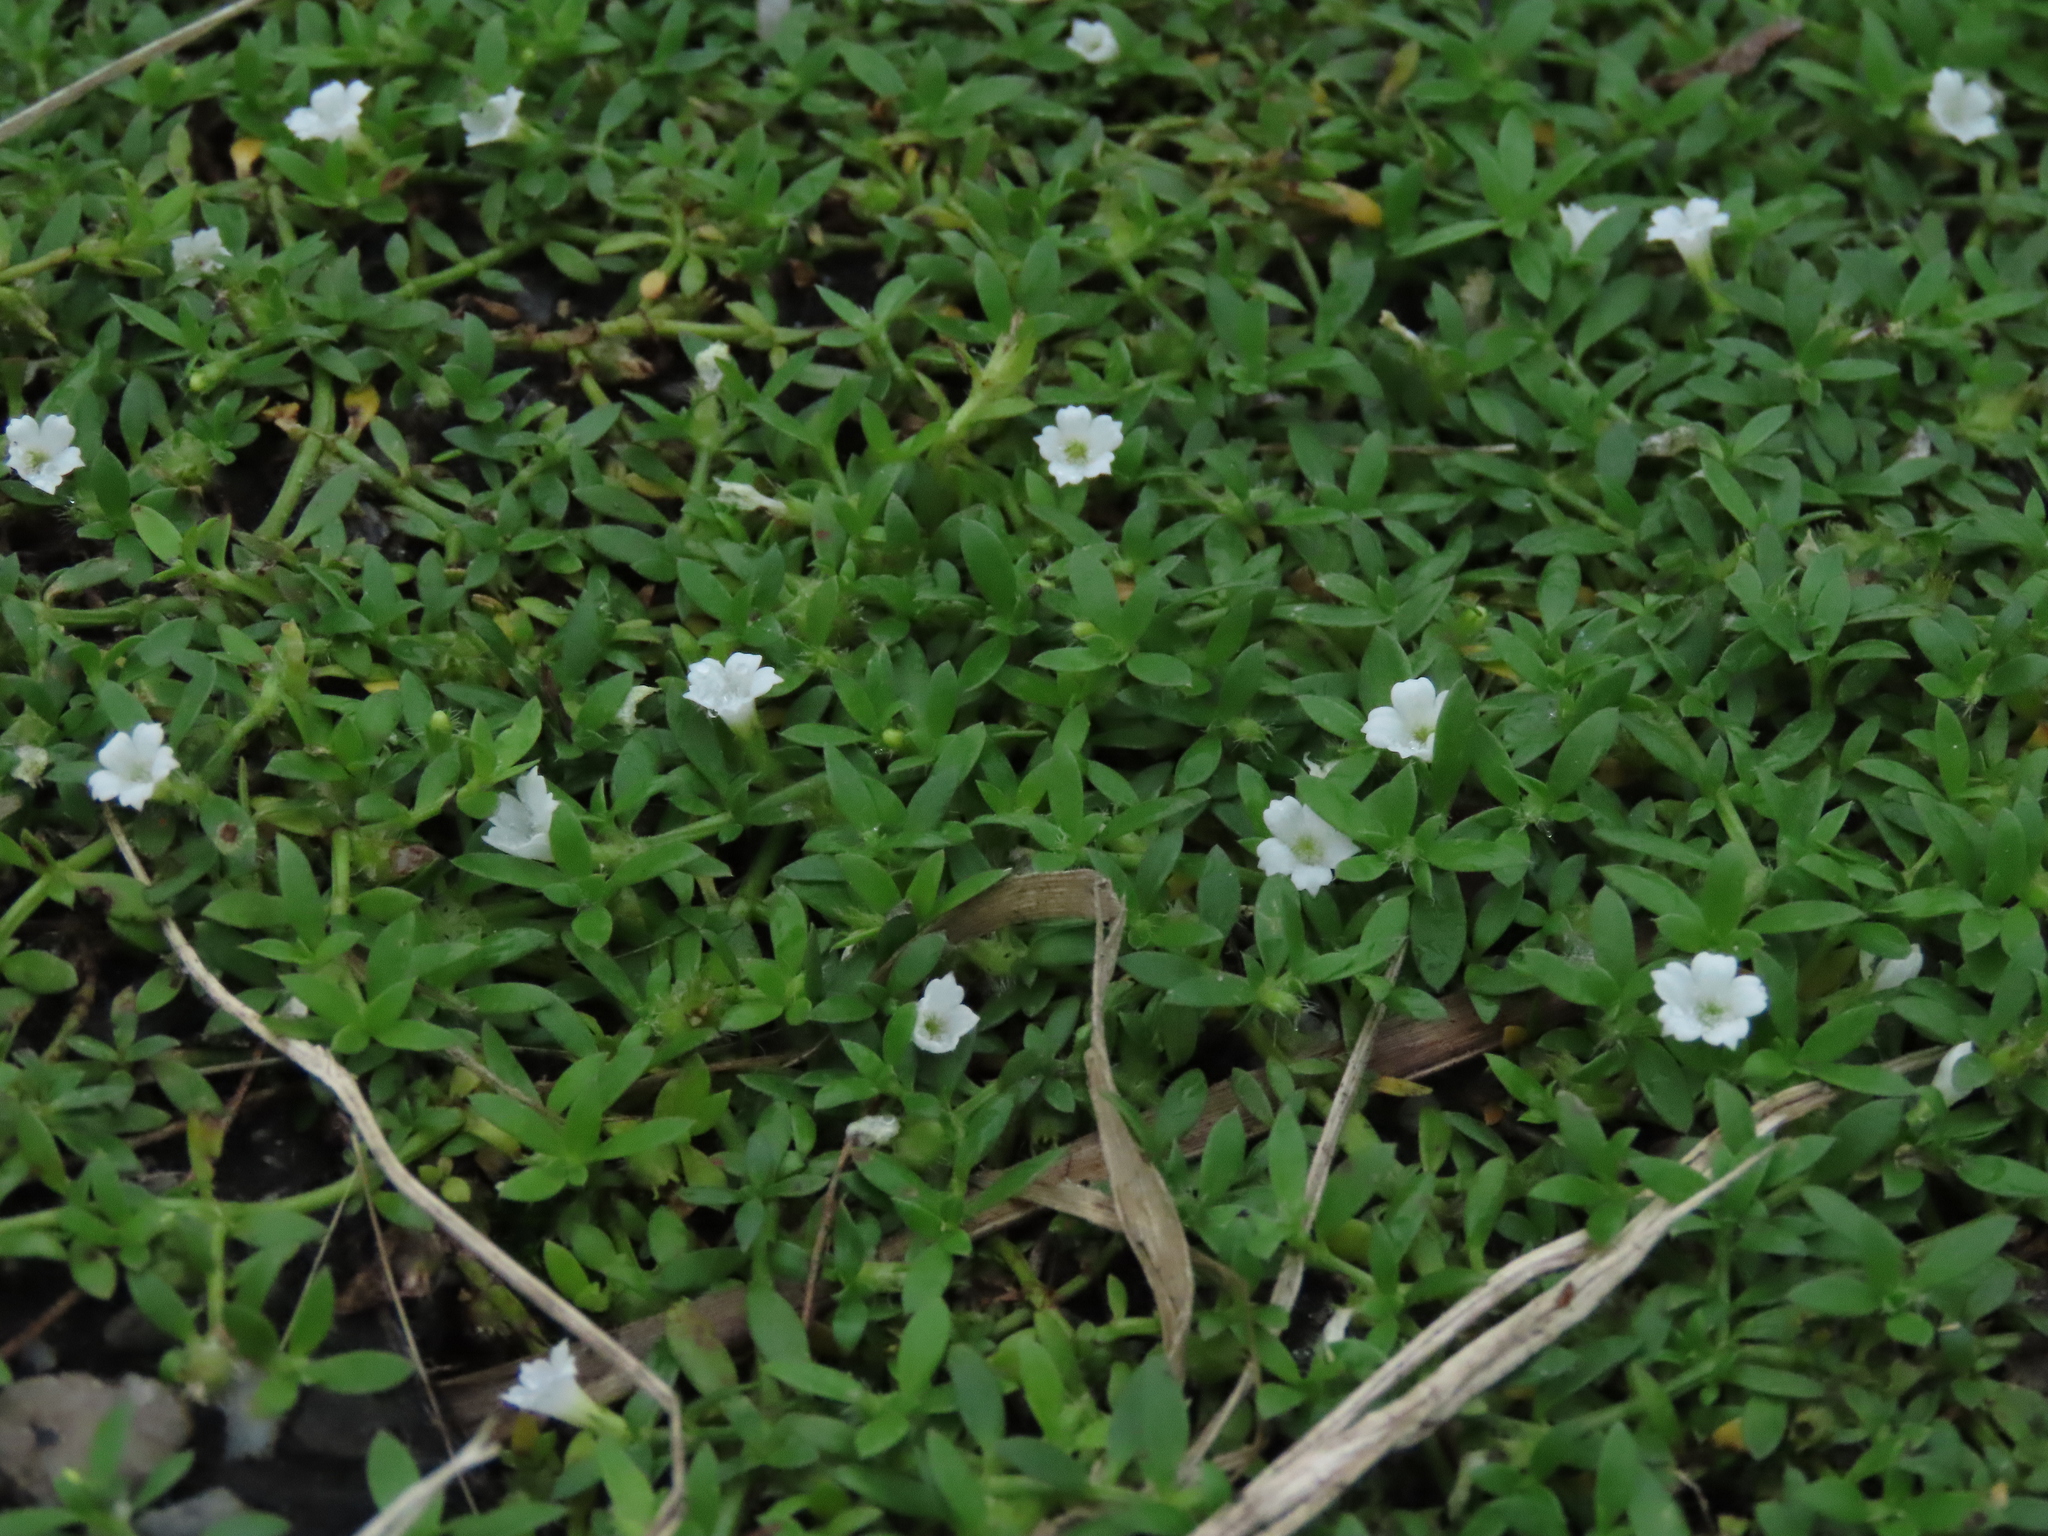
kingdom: Plantae
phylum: Tracheophyta
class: Magnoliopsida
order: Gentianales
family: Rubiaceae
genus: Dentella
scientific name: Dentella repens
